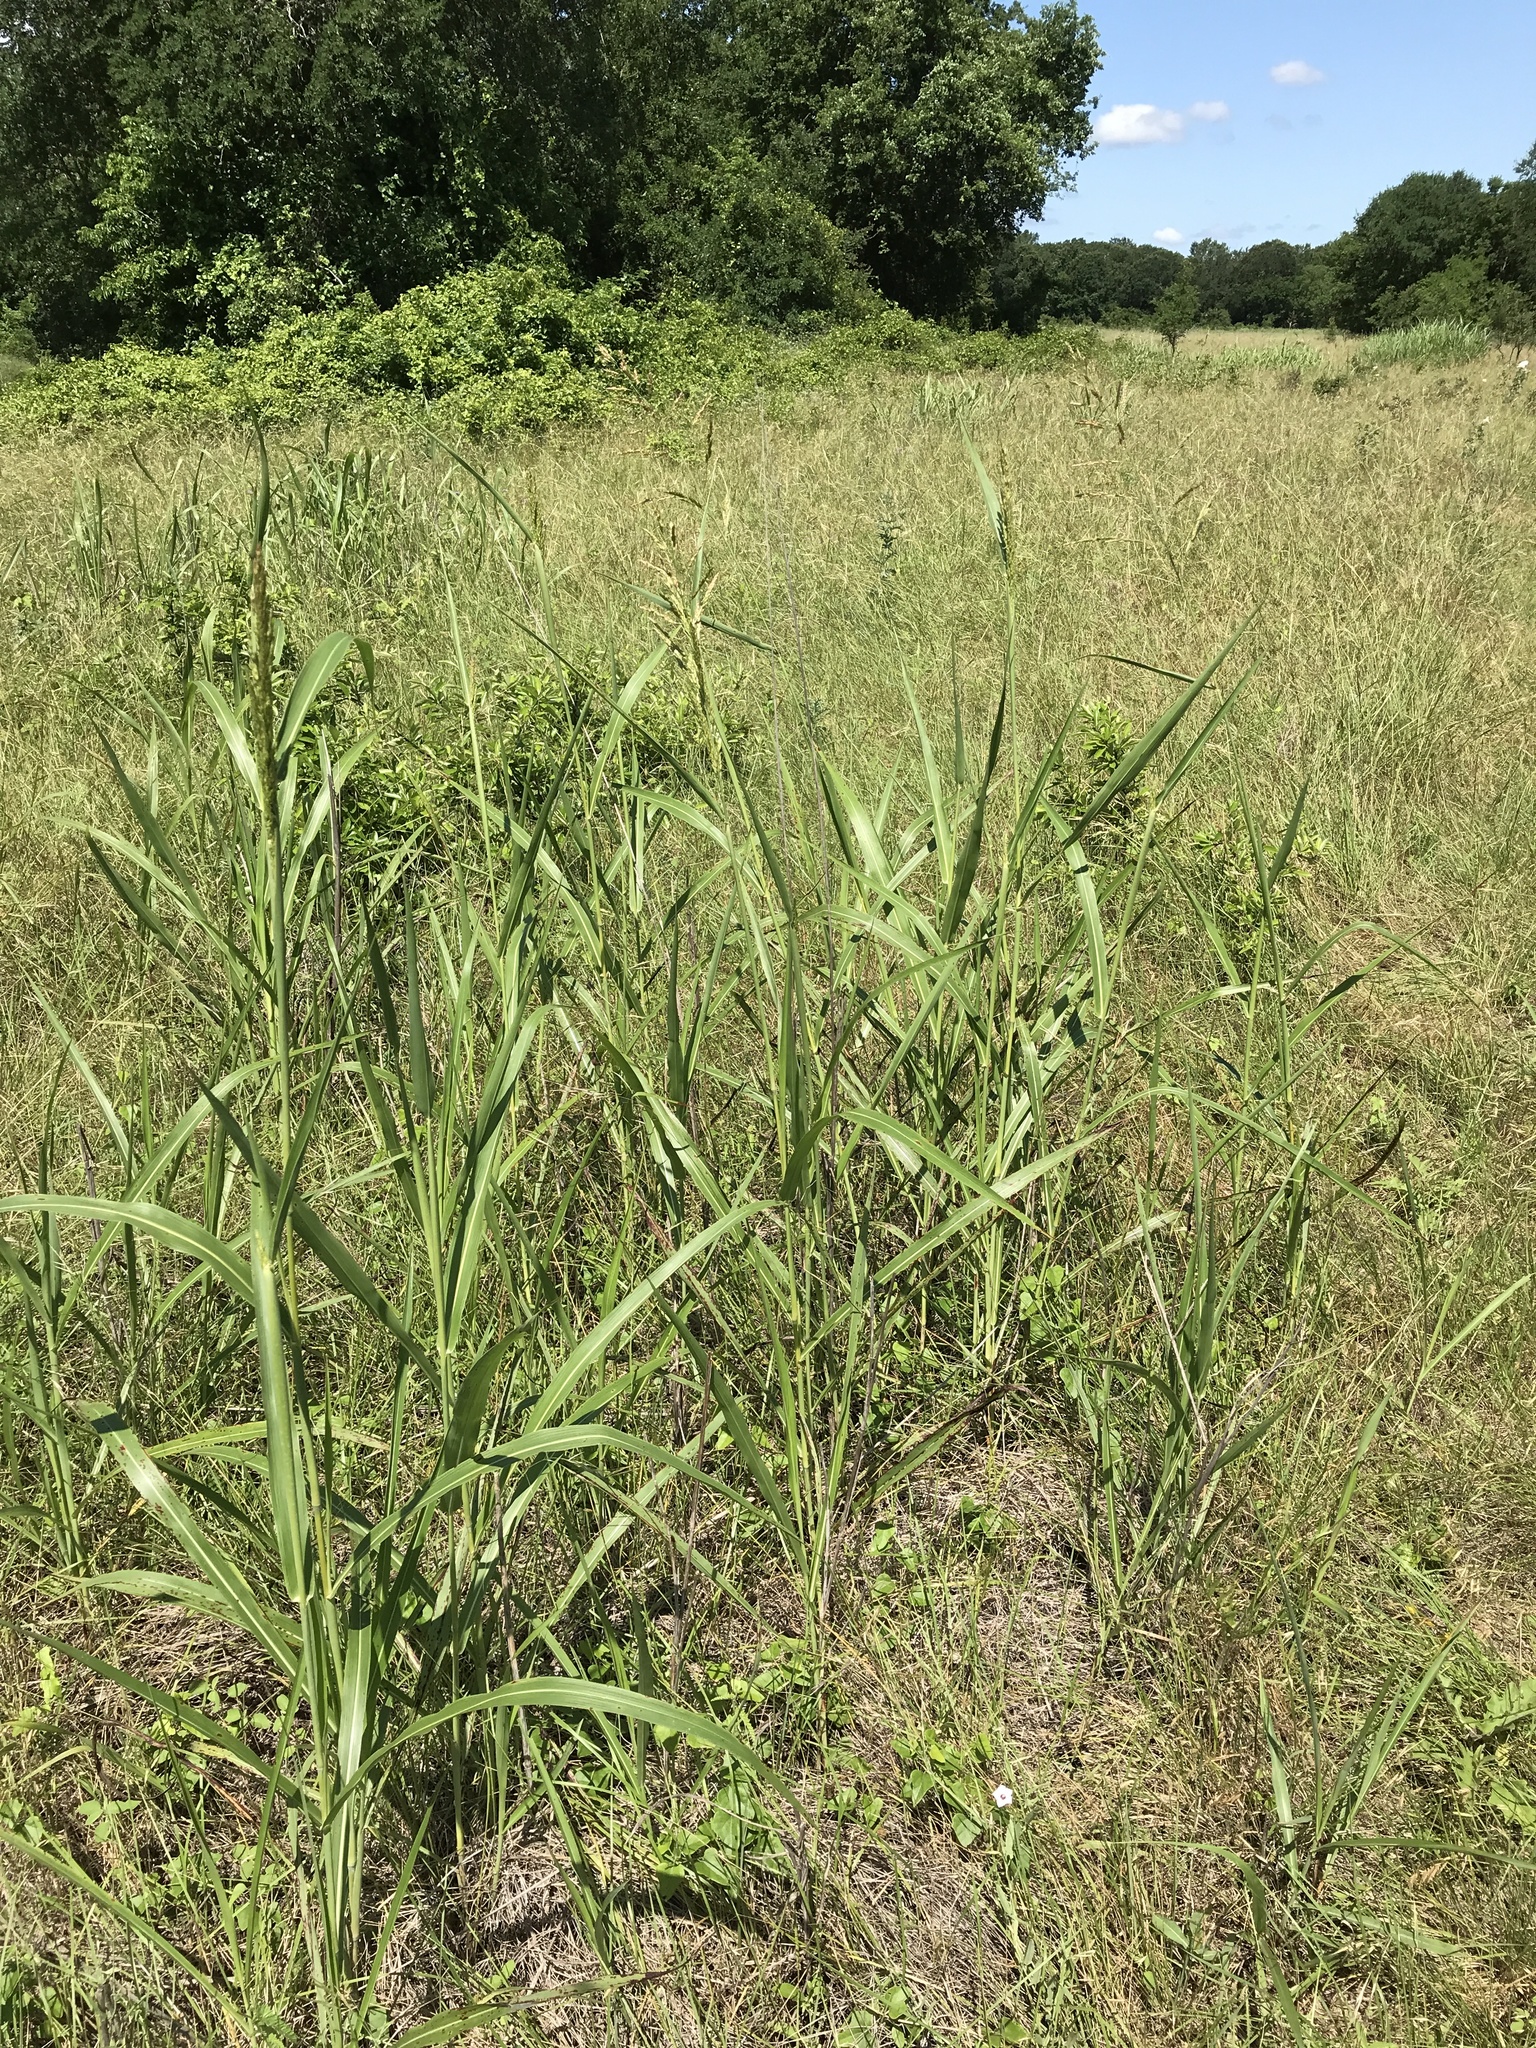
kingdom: Plantae
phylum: Tracheophyta
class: Liliopsida
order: Poales
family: Poaceae
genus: Sorghum
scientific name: Sorghum halepense
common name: Johnson-grass
